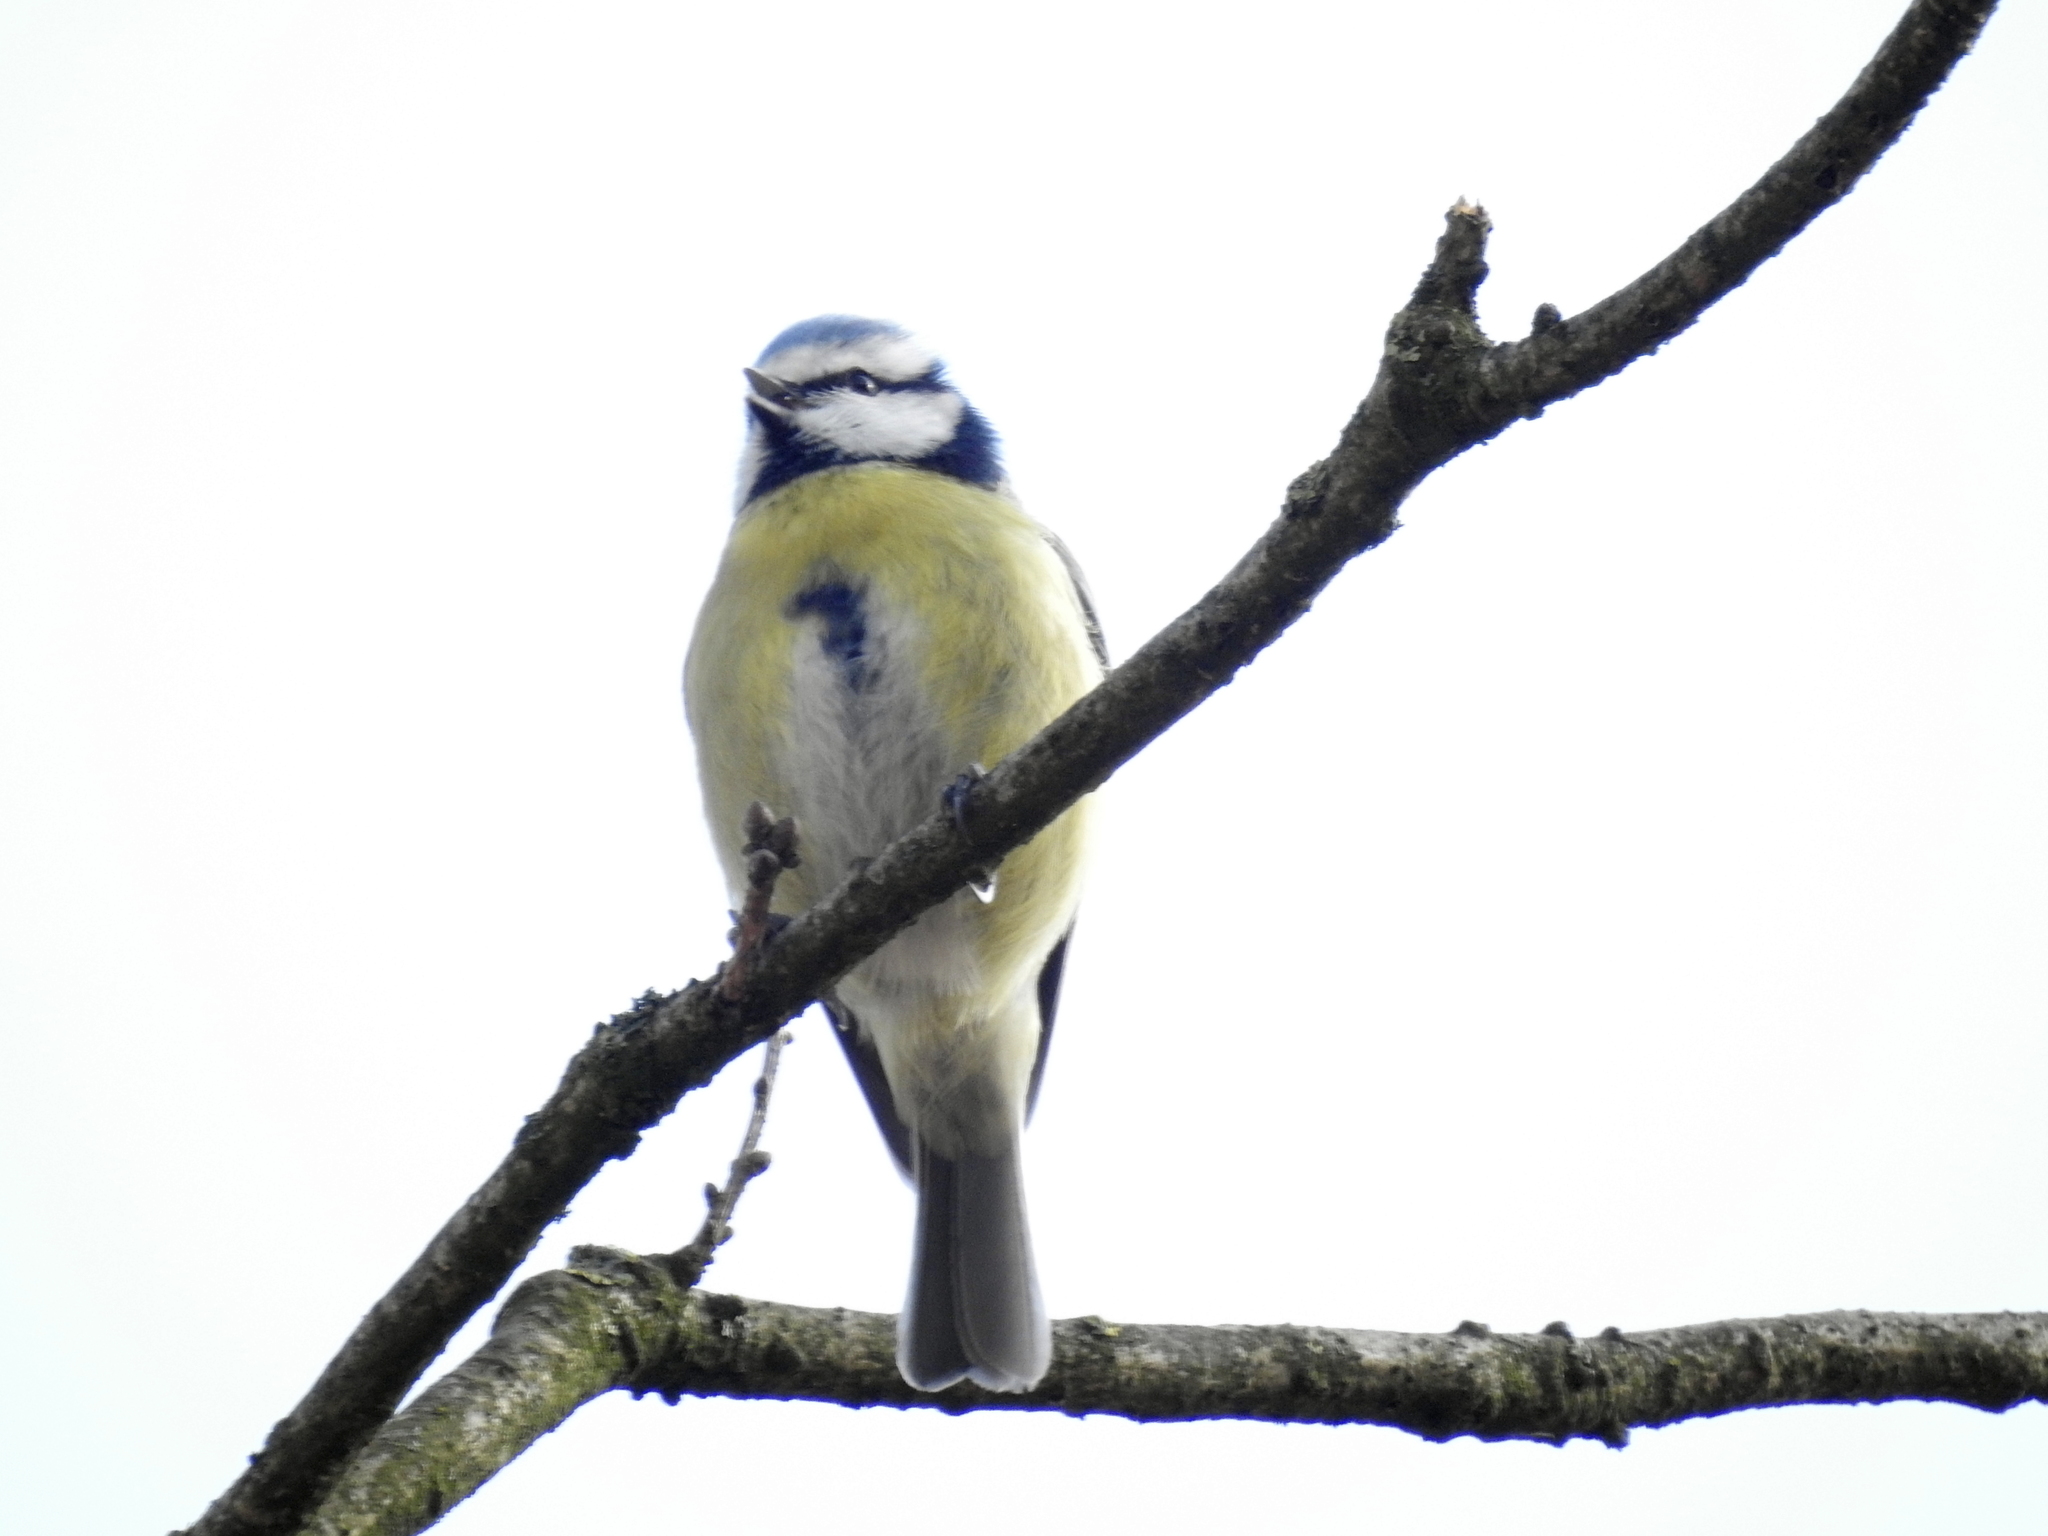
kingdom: Animalia
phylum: Chordata
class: Aves
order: Passeriformes
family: Paridae
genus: Cyanistes
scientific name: Cyanistes caeruleus
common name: Eurasian blue tit
